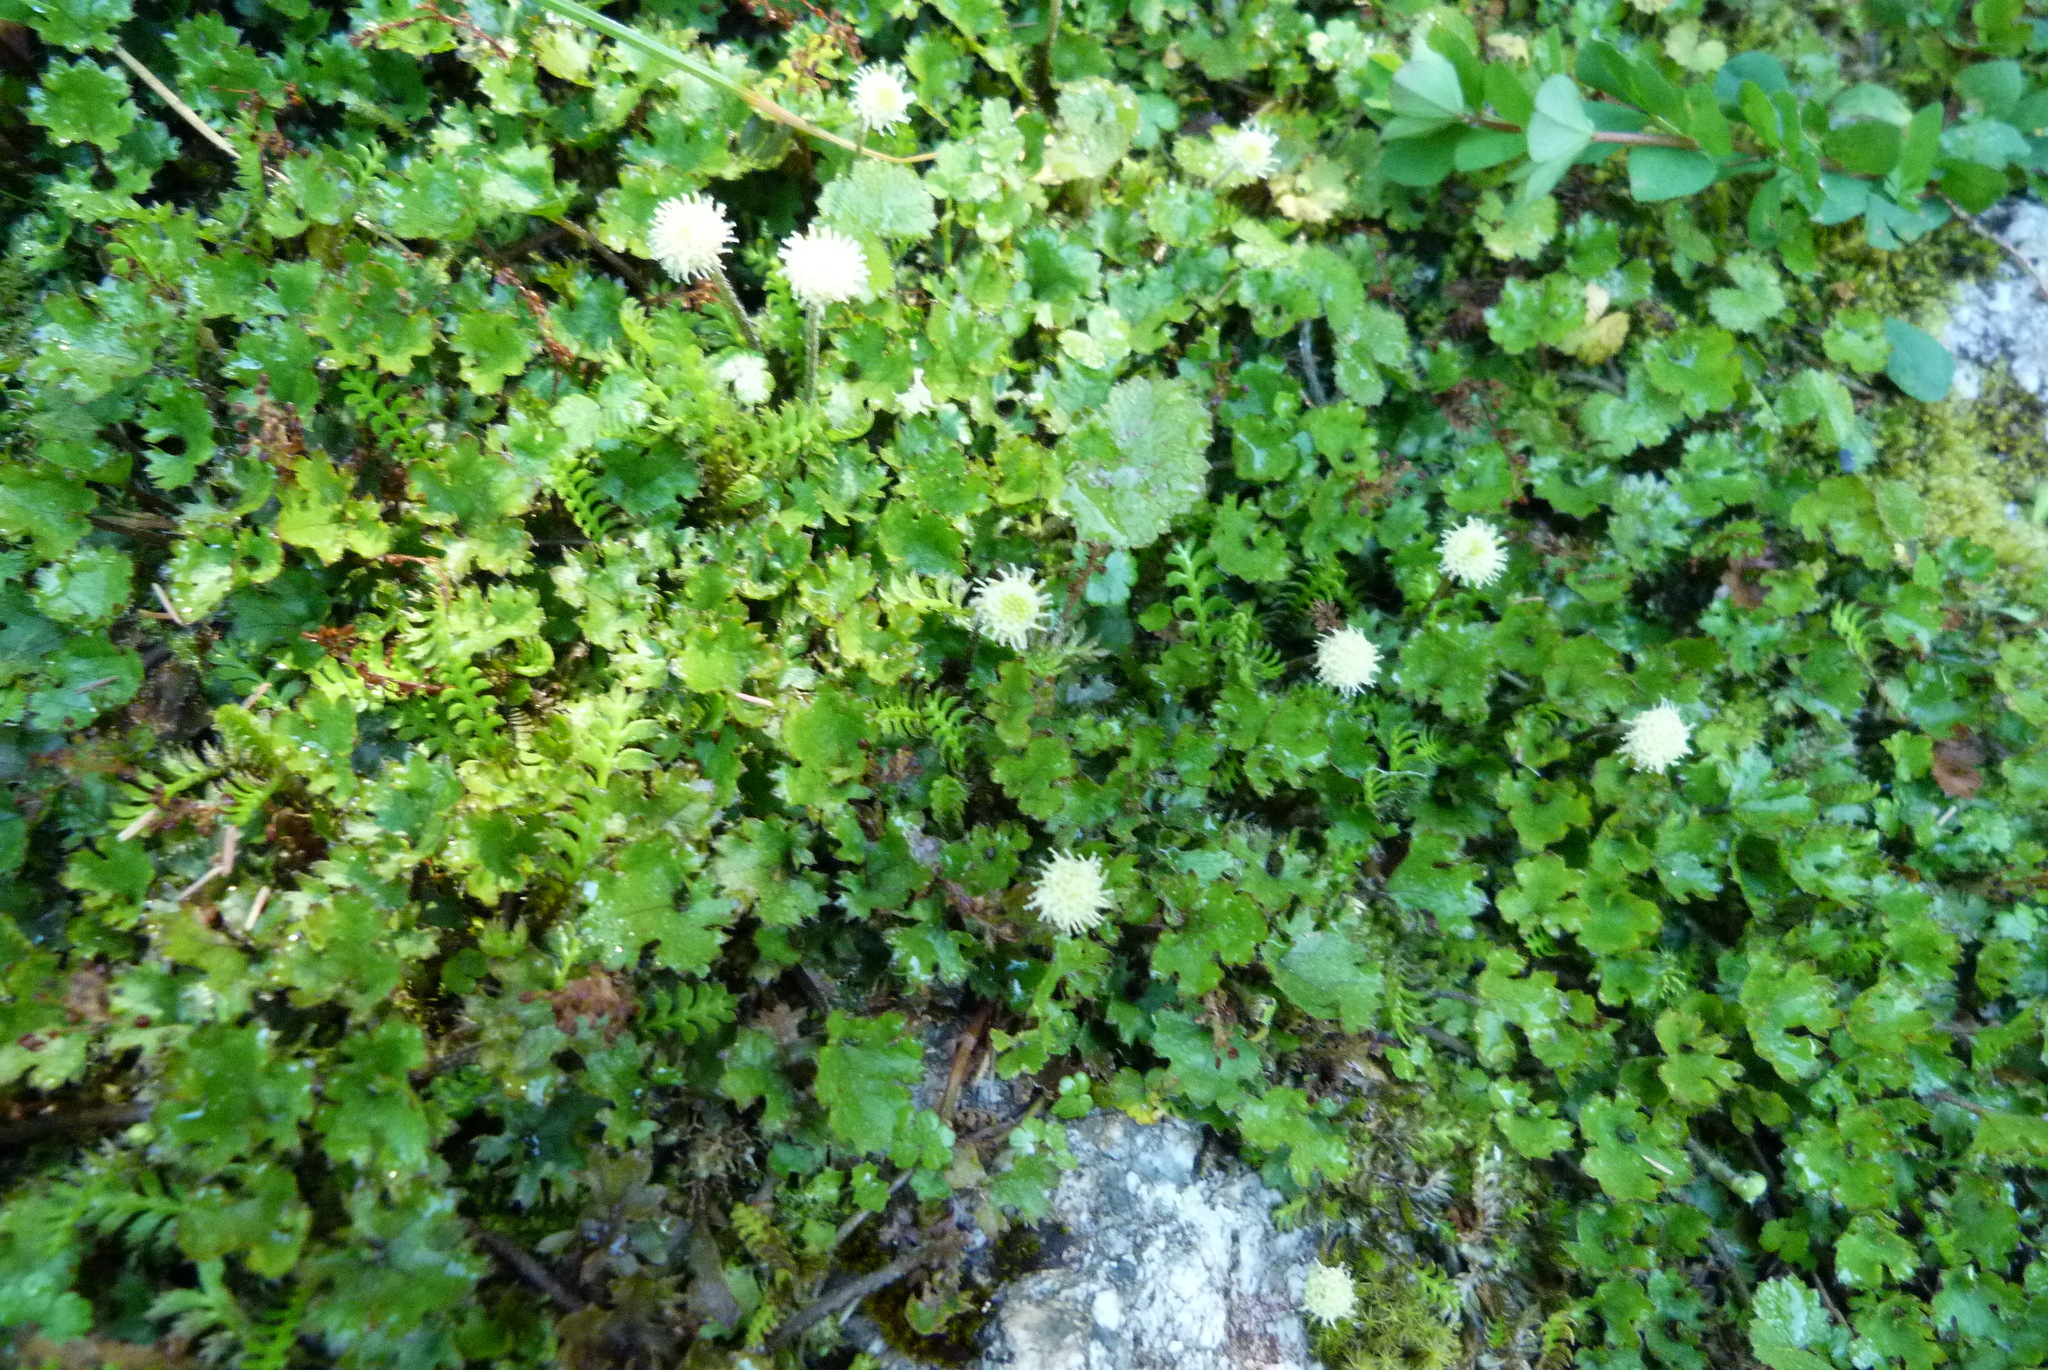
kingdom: Plantae
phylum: Tracheophyta
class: Magnoliopsida
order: Asterales
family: Asteraceae
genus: Leptinella
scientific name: Leptinella squalida
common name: New zealand brass-buttons
